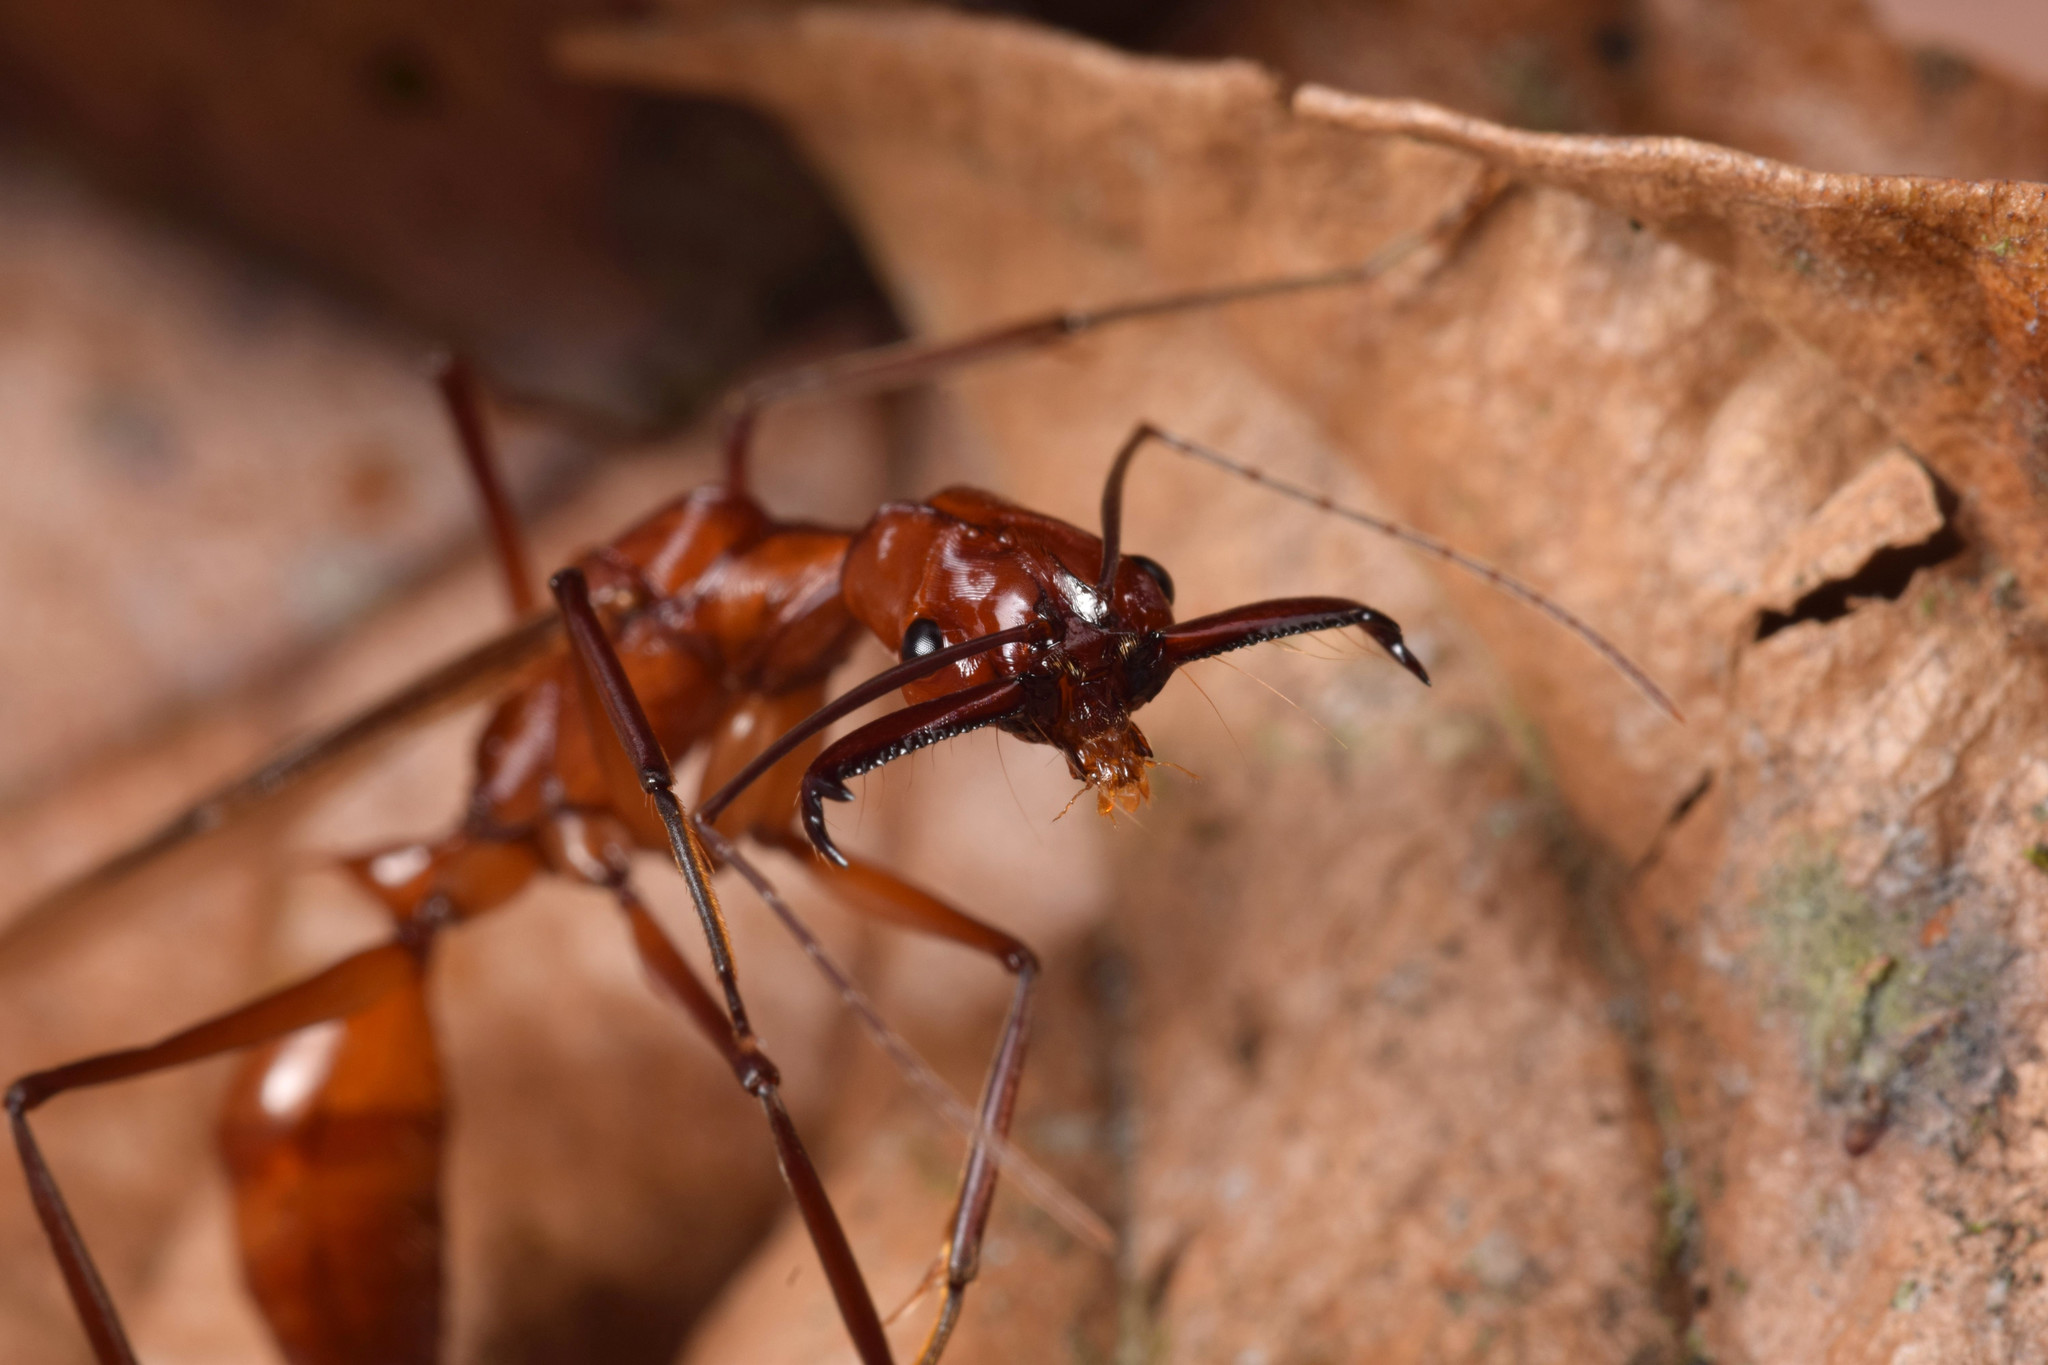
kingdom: Animalia
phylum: Arthropoda
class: Insecta
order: Hymenoptera
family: Formicidae
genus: Odontomachus
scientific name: Odontomachus davidsoni
